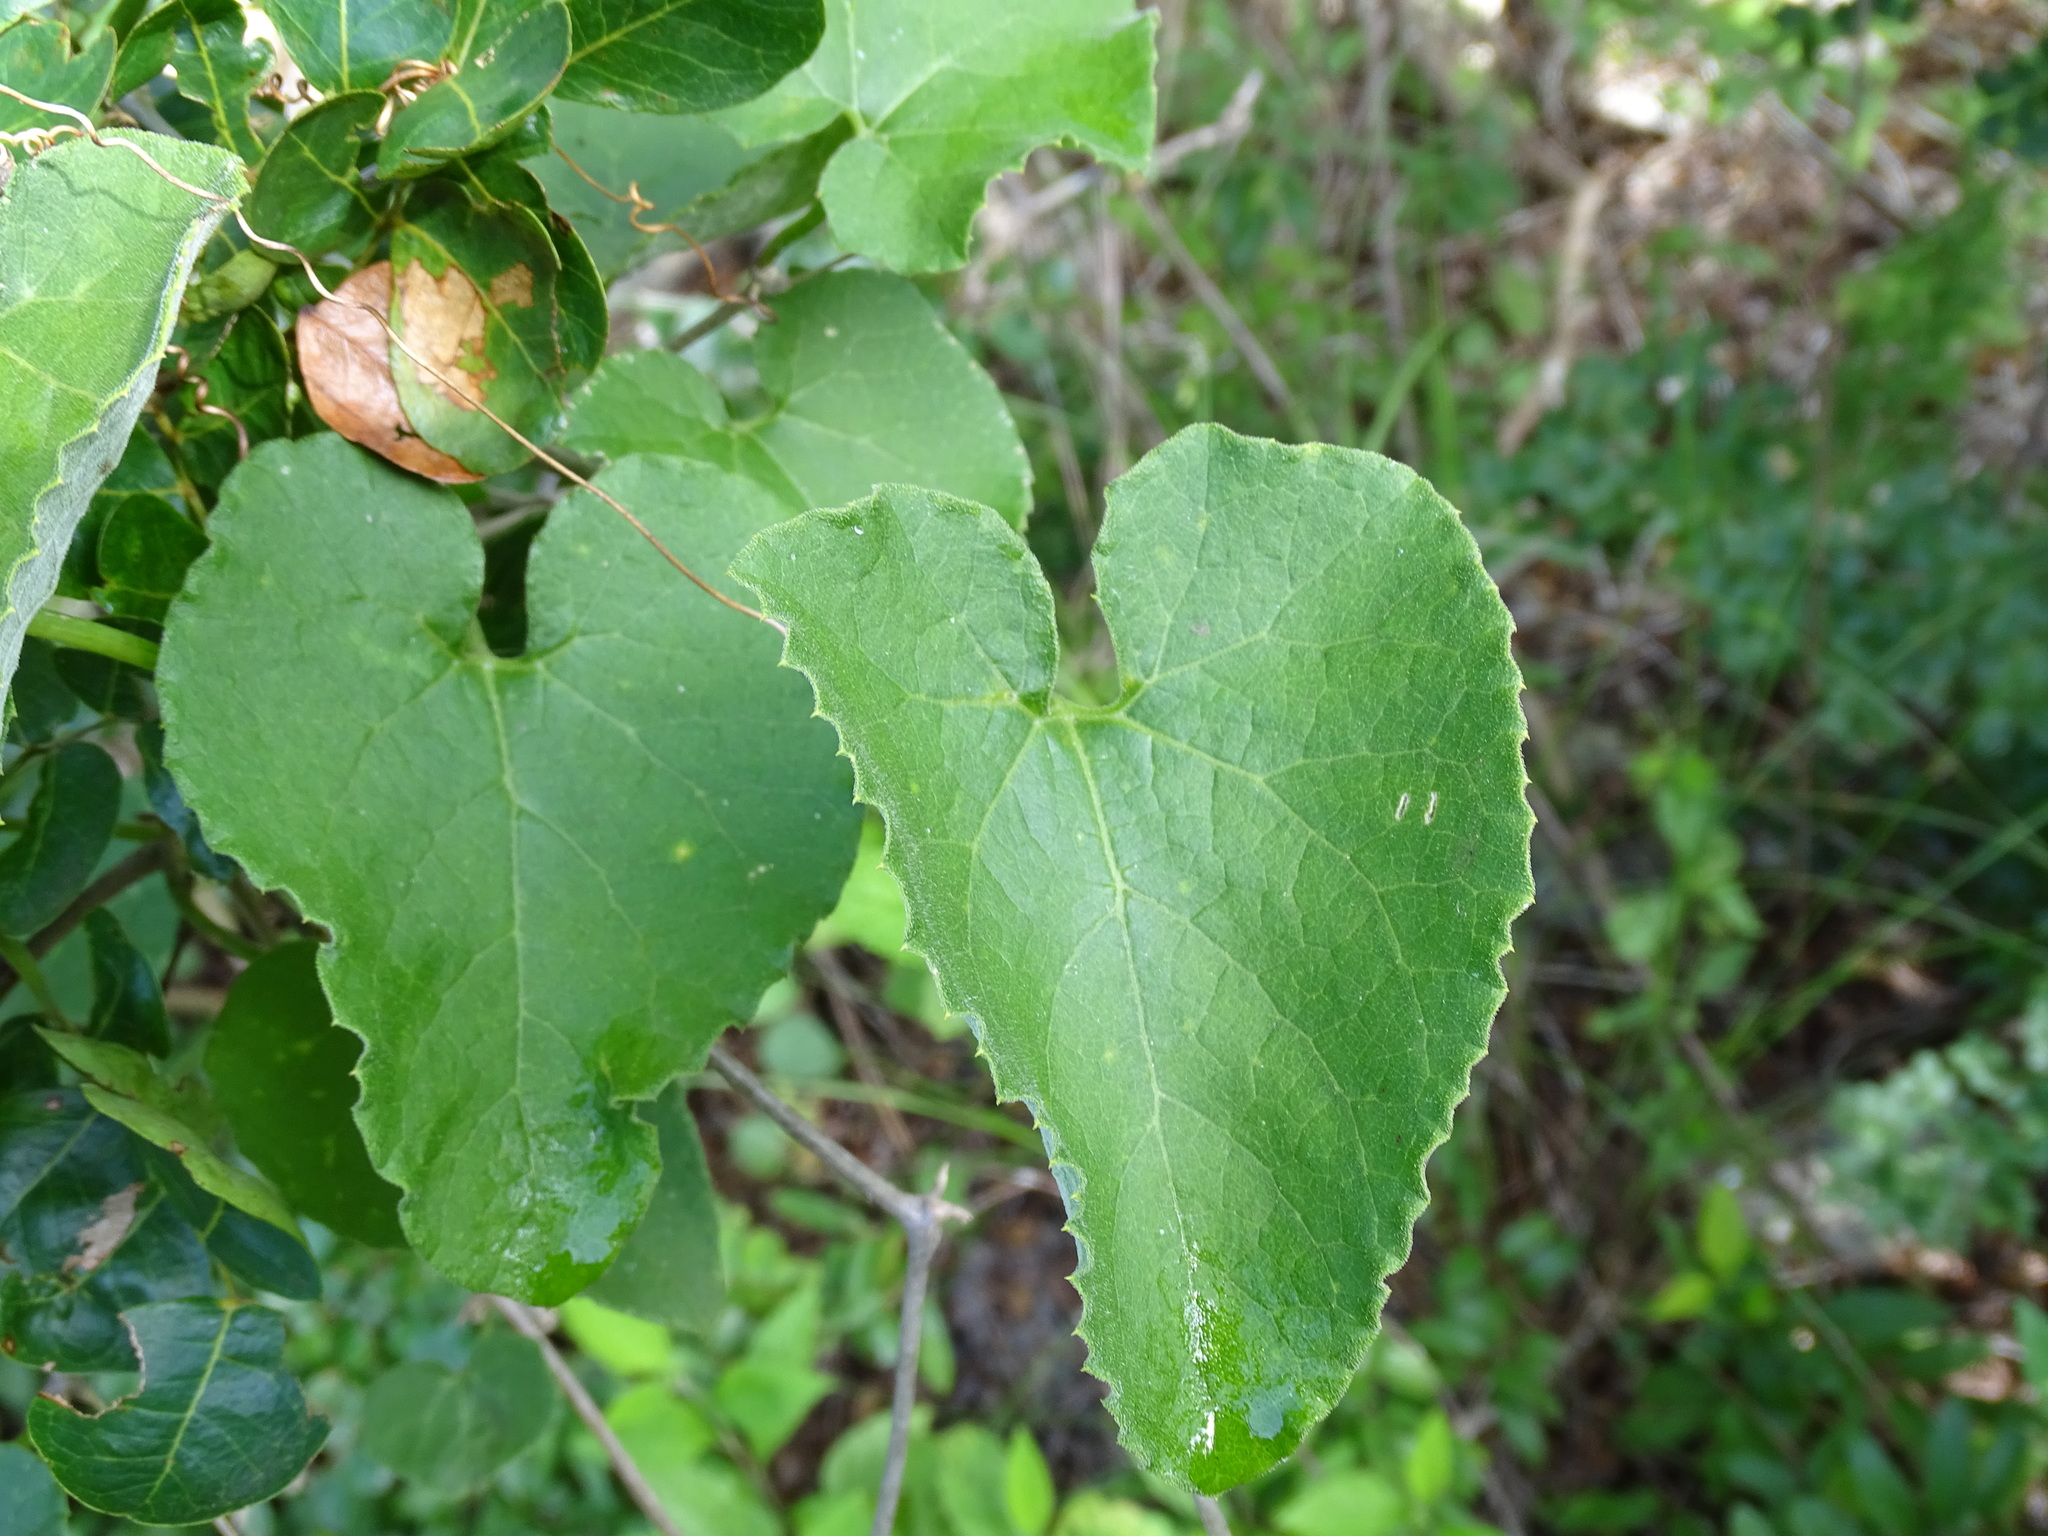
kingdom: Plantae
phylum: Tracheophyta
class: Magnoliopsida
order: Cucurbitales
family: Cucurbitaceae
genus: Polyclathra
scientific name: Polyclathra cucumerina
